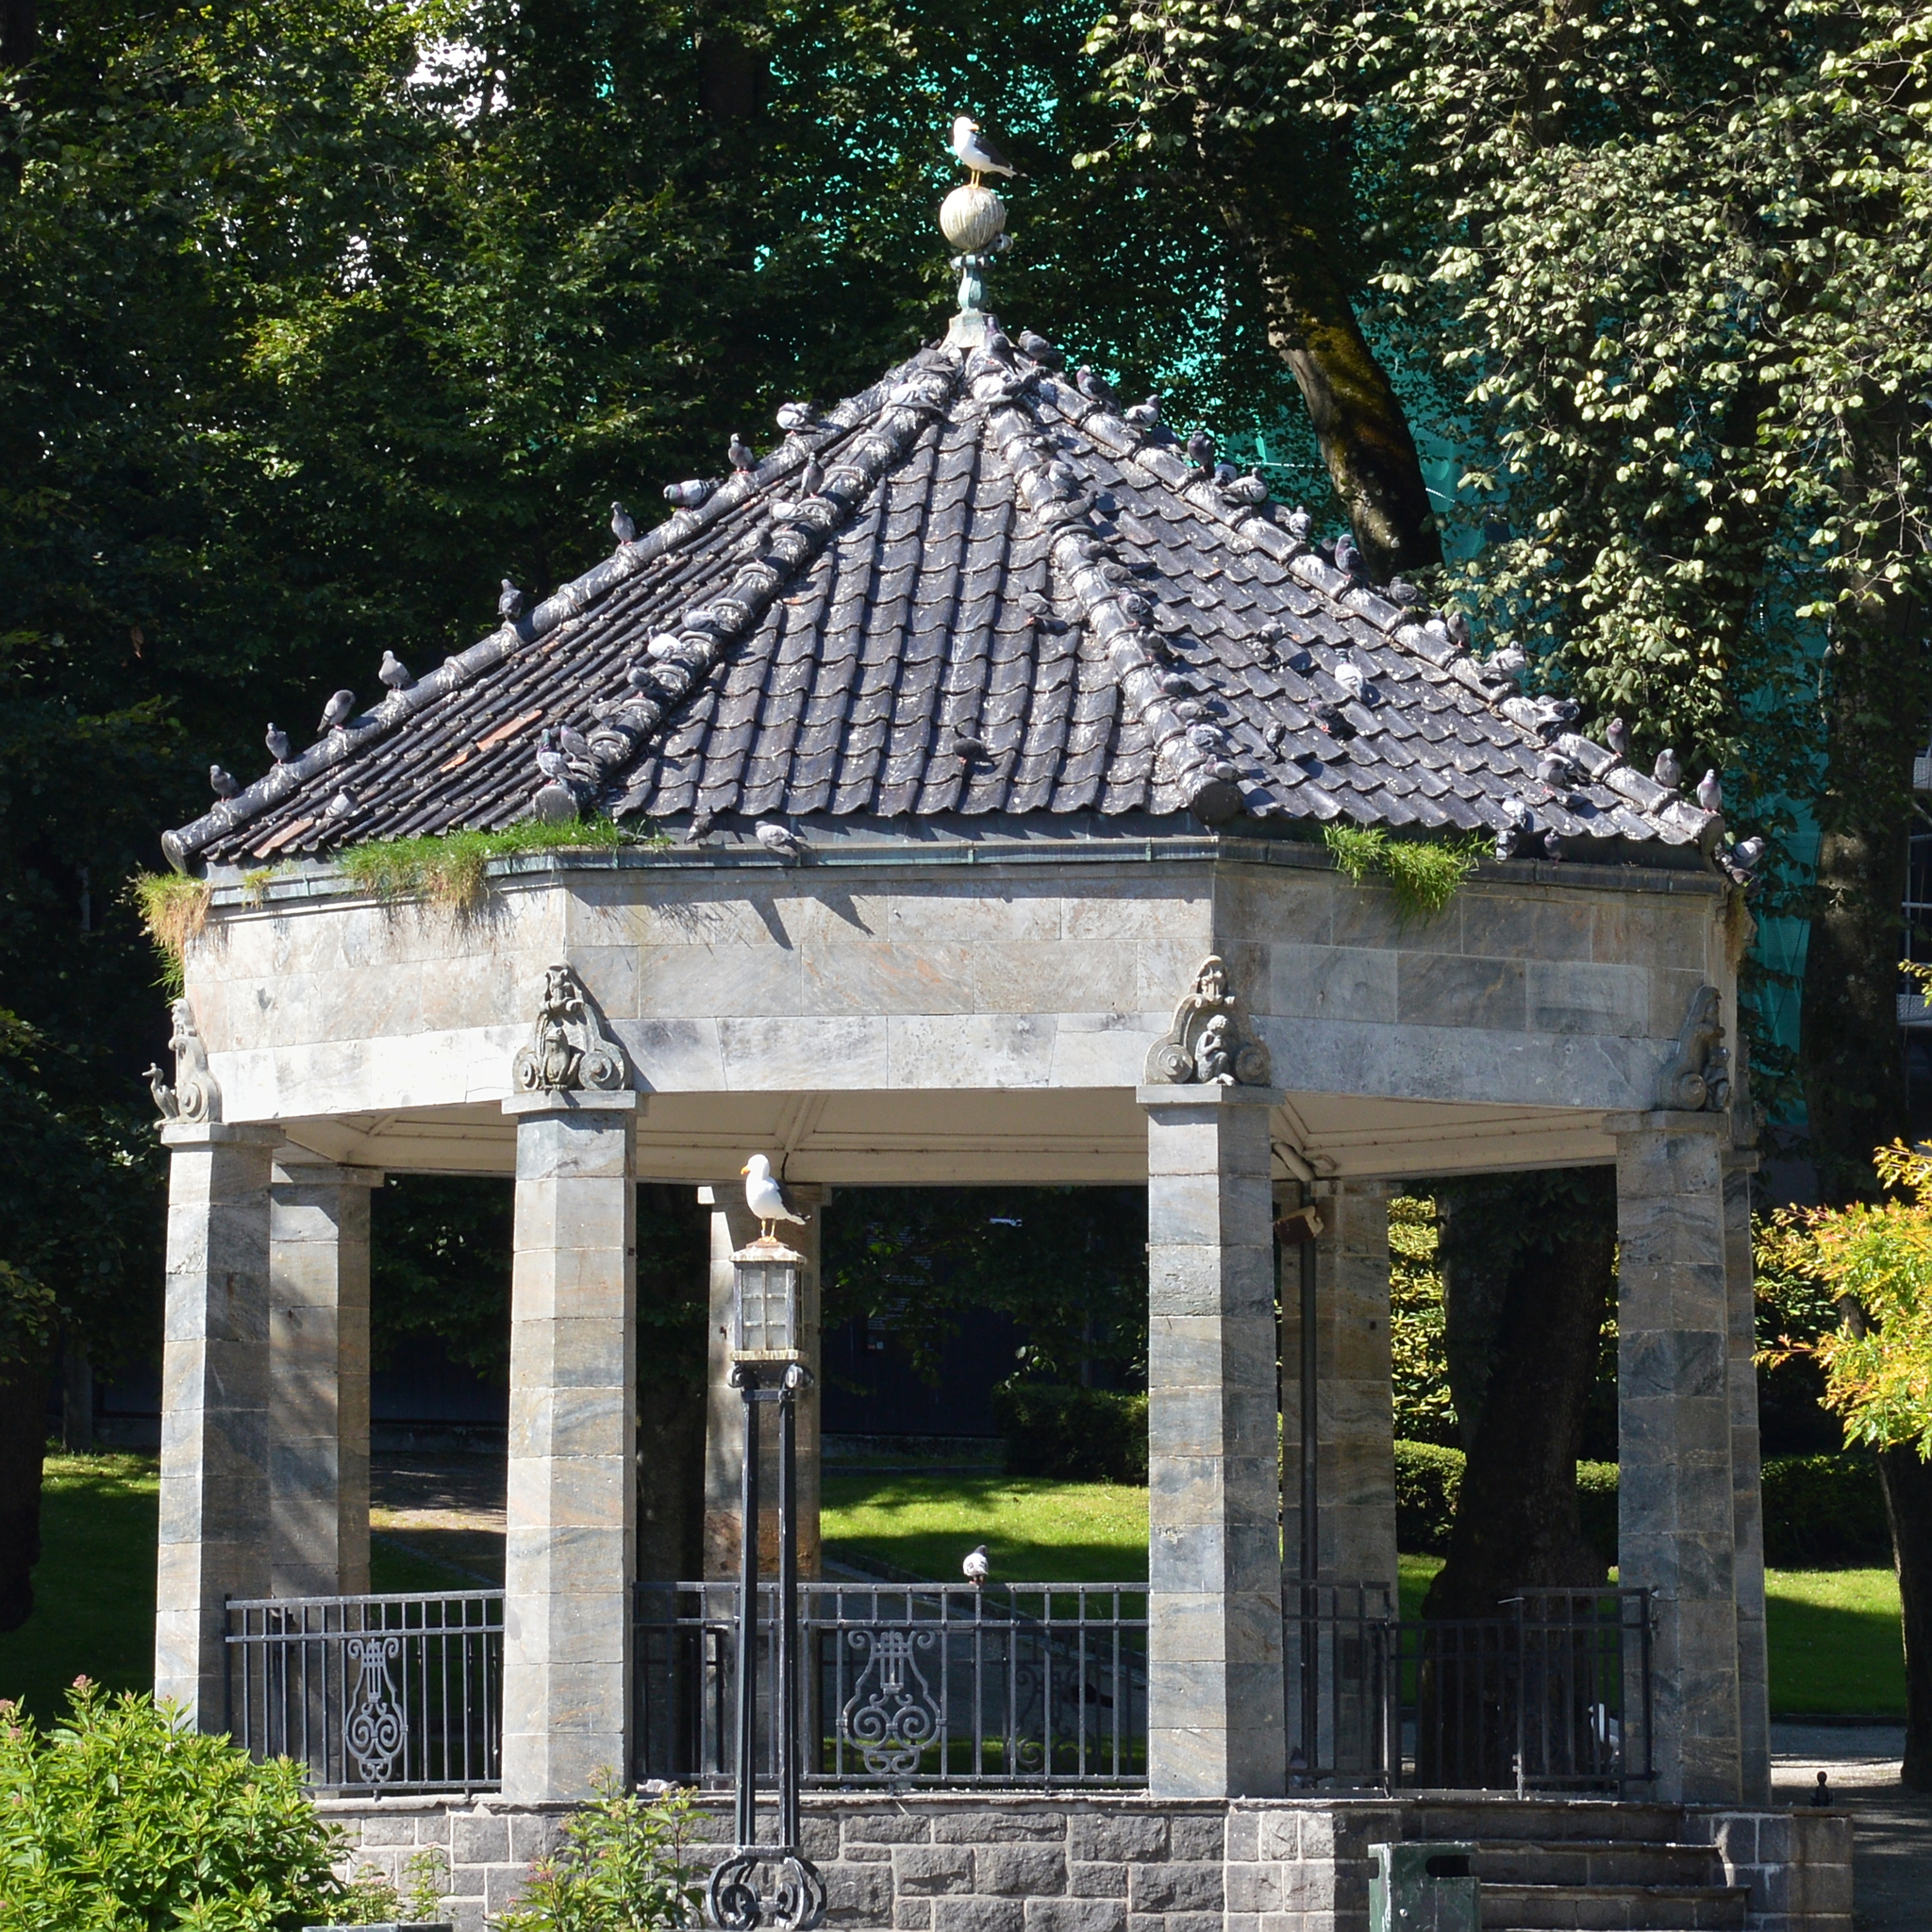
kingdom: Animalia
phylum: Chordata
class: Aves
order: Columbiformes
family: Columbidae
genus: Columba
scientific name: Columba livia
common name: Rock pigeon
